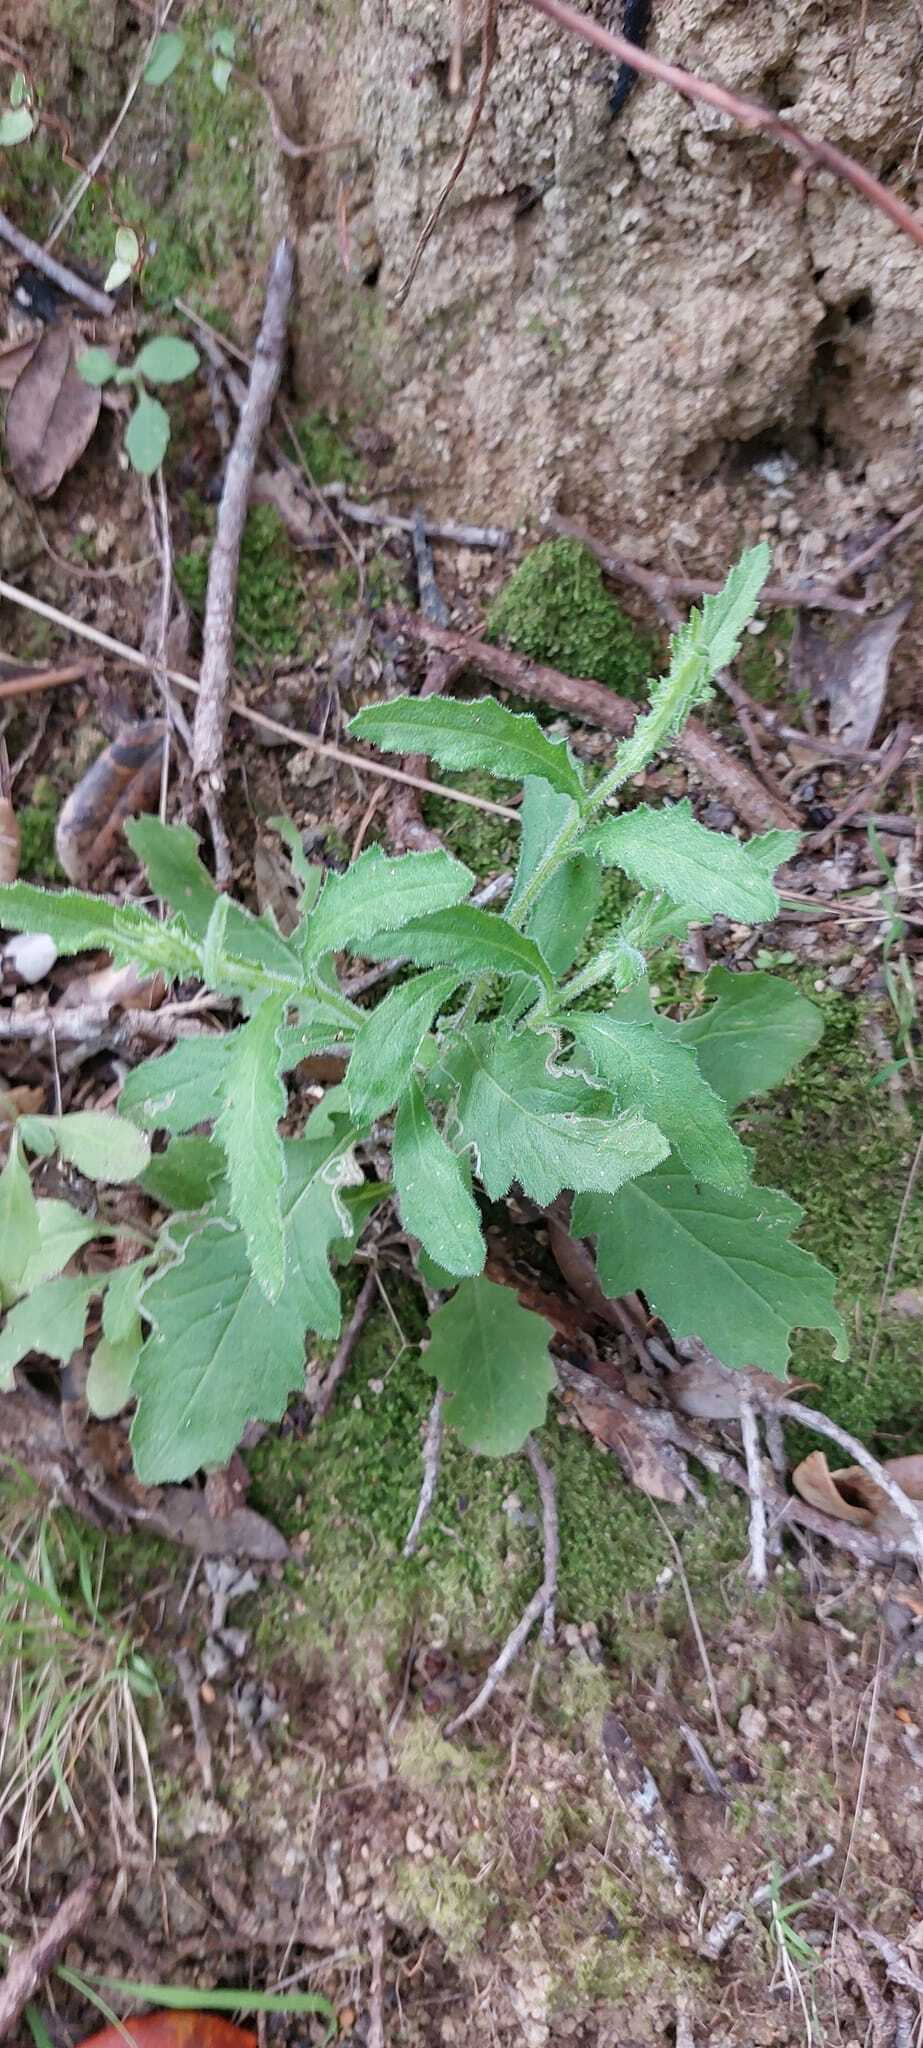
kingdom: Plantae
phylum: Tracheophyta
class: Magnoliopsida
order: Asterales
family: Asteraceae
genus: Senecio
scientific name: Senecio scaberulus
